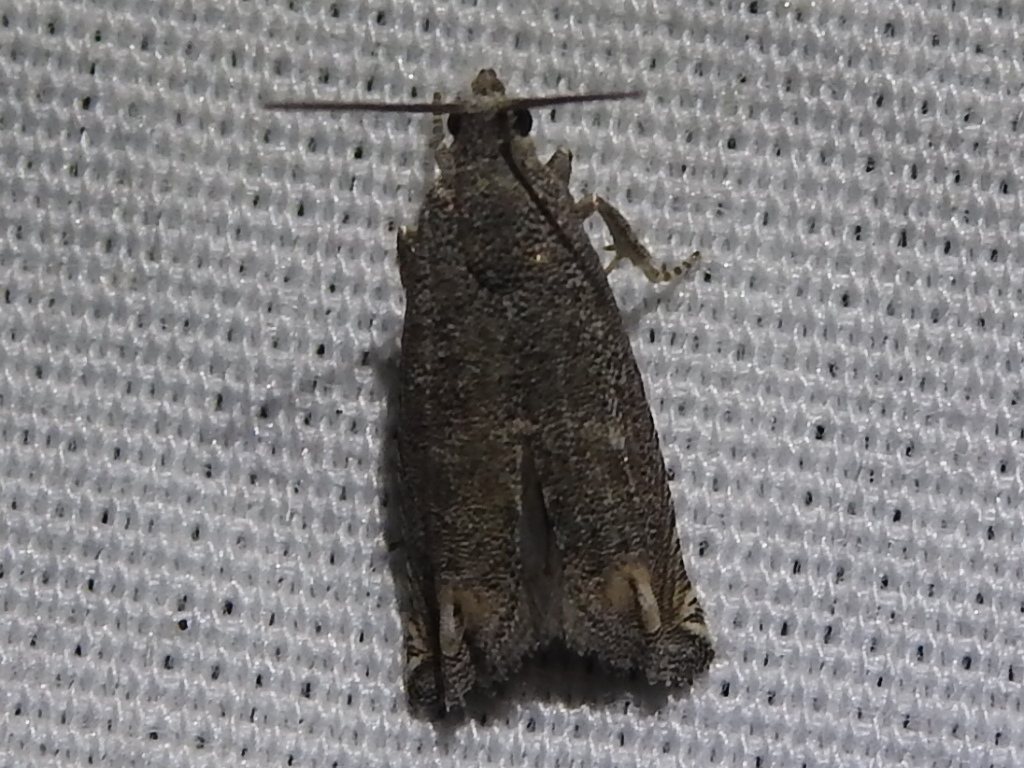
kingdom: Animalia
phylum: Arthropoda
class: Insecta
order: Lepidoptera
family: Tortricidae
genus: Epiblema
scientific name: Epiblema strenuana
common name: Ragweed borer moth
